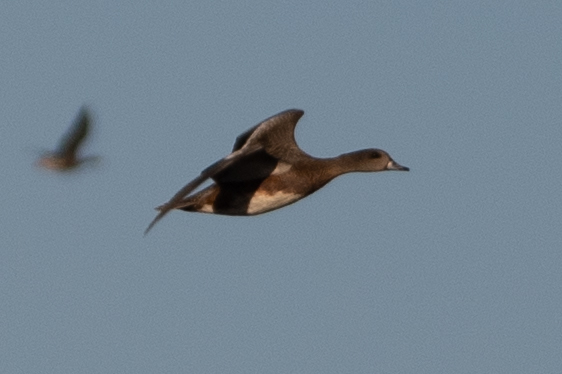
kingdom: Animalia
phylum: Chordata
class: Aves
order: Anseriformes
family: Anatidae
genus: Mareca
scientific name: Mareca americana
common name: American wigeon
